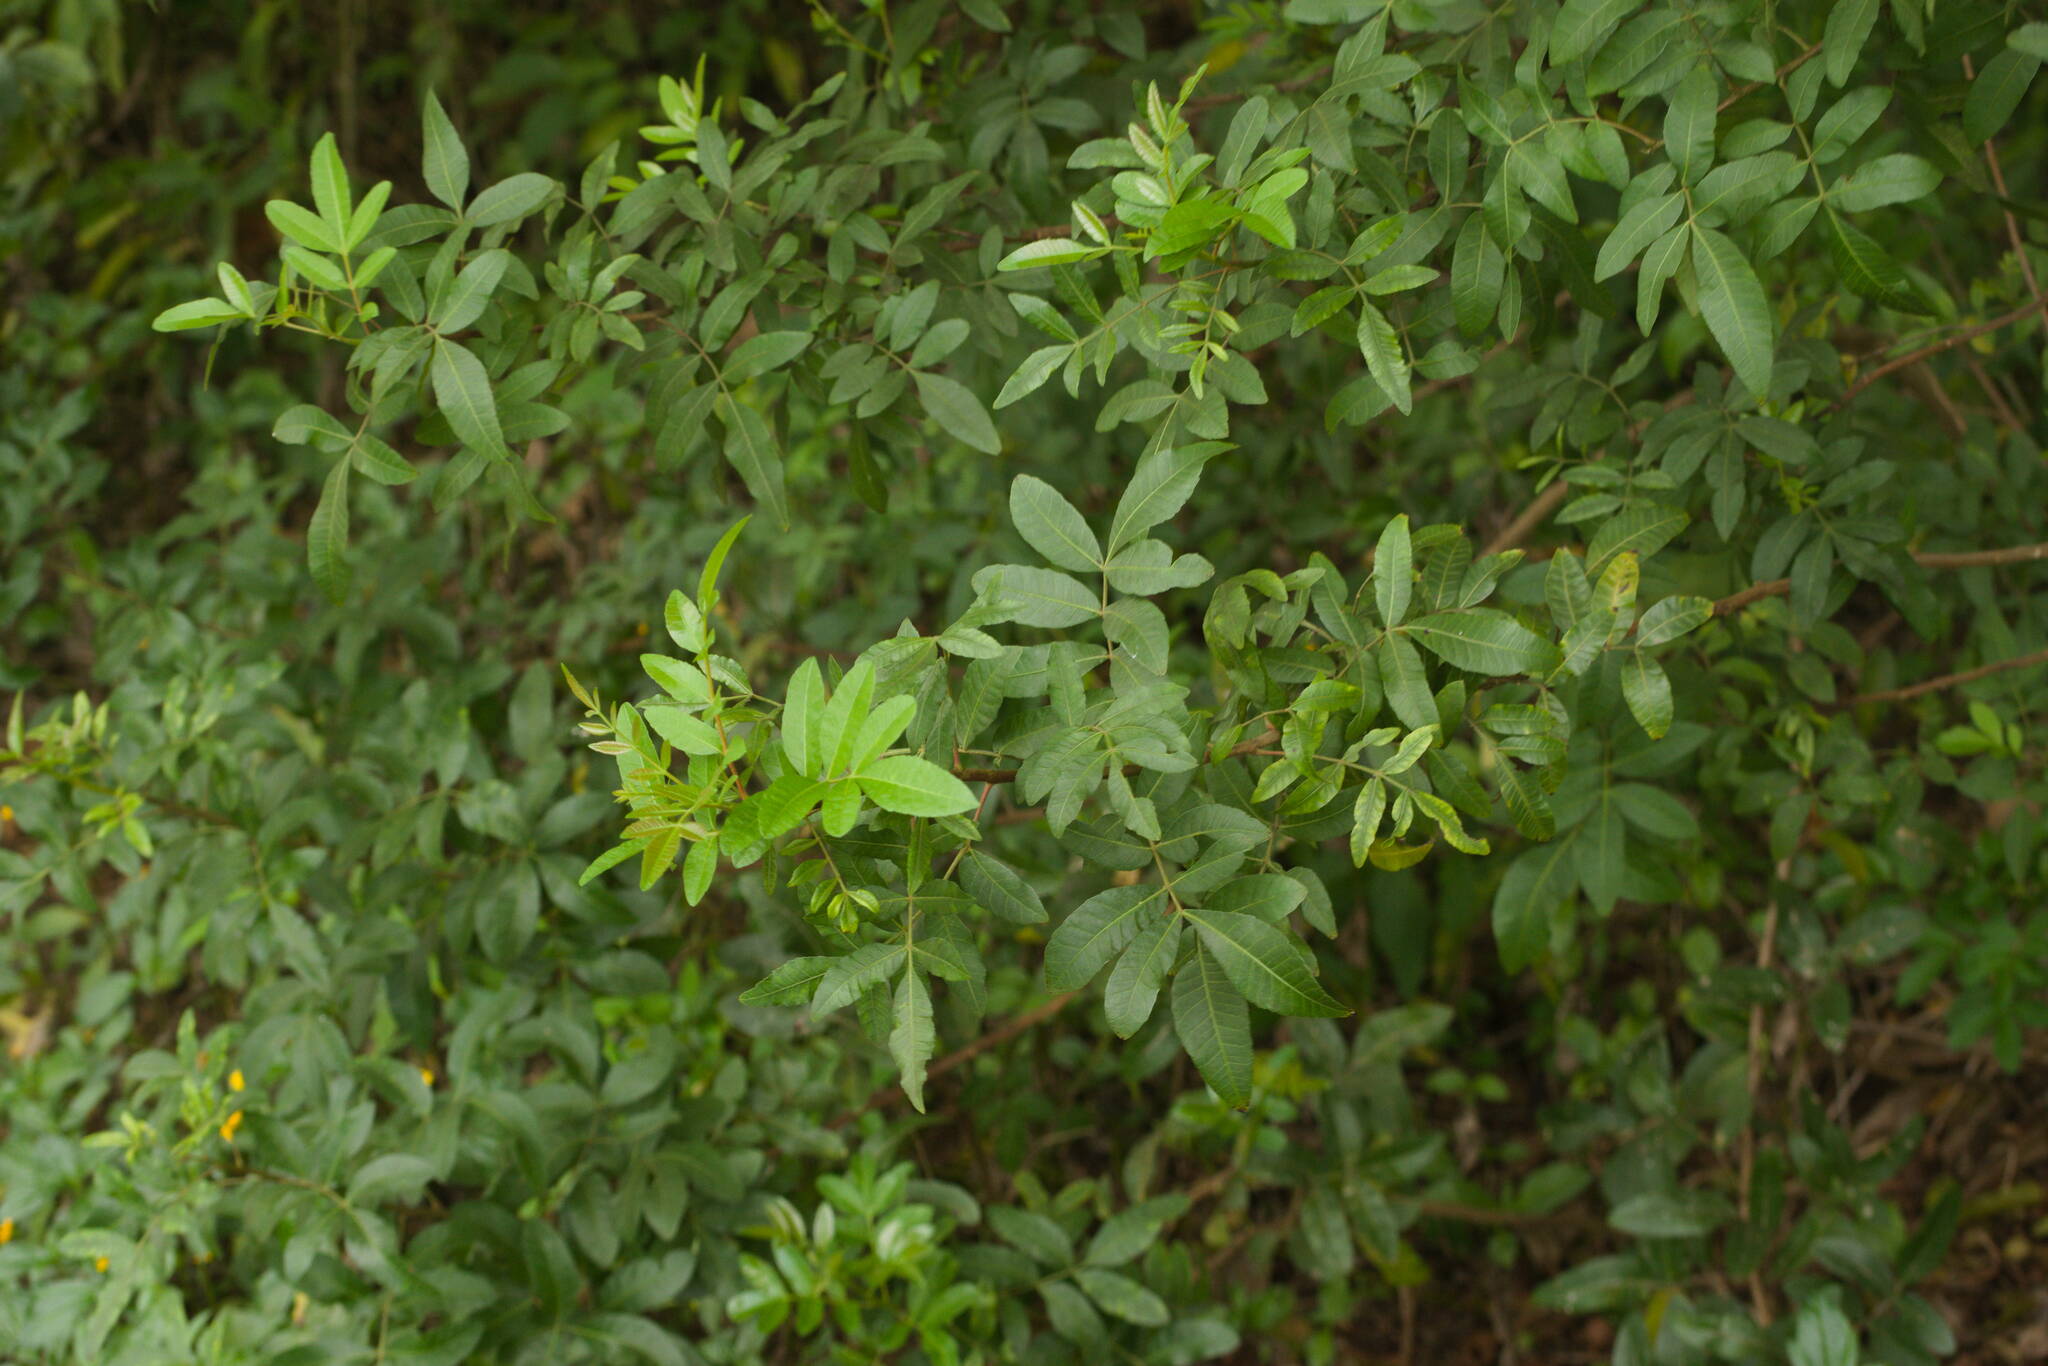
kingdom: Plantae
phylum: Tracheophyta
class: Magnoliopsida
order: Sapindales
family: Anacardiaceae
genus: Schinus
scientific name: Schinus terebinthifolia
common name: Brazilian peppertree
